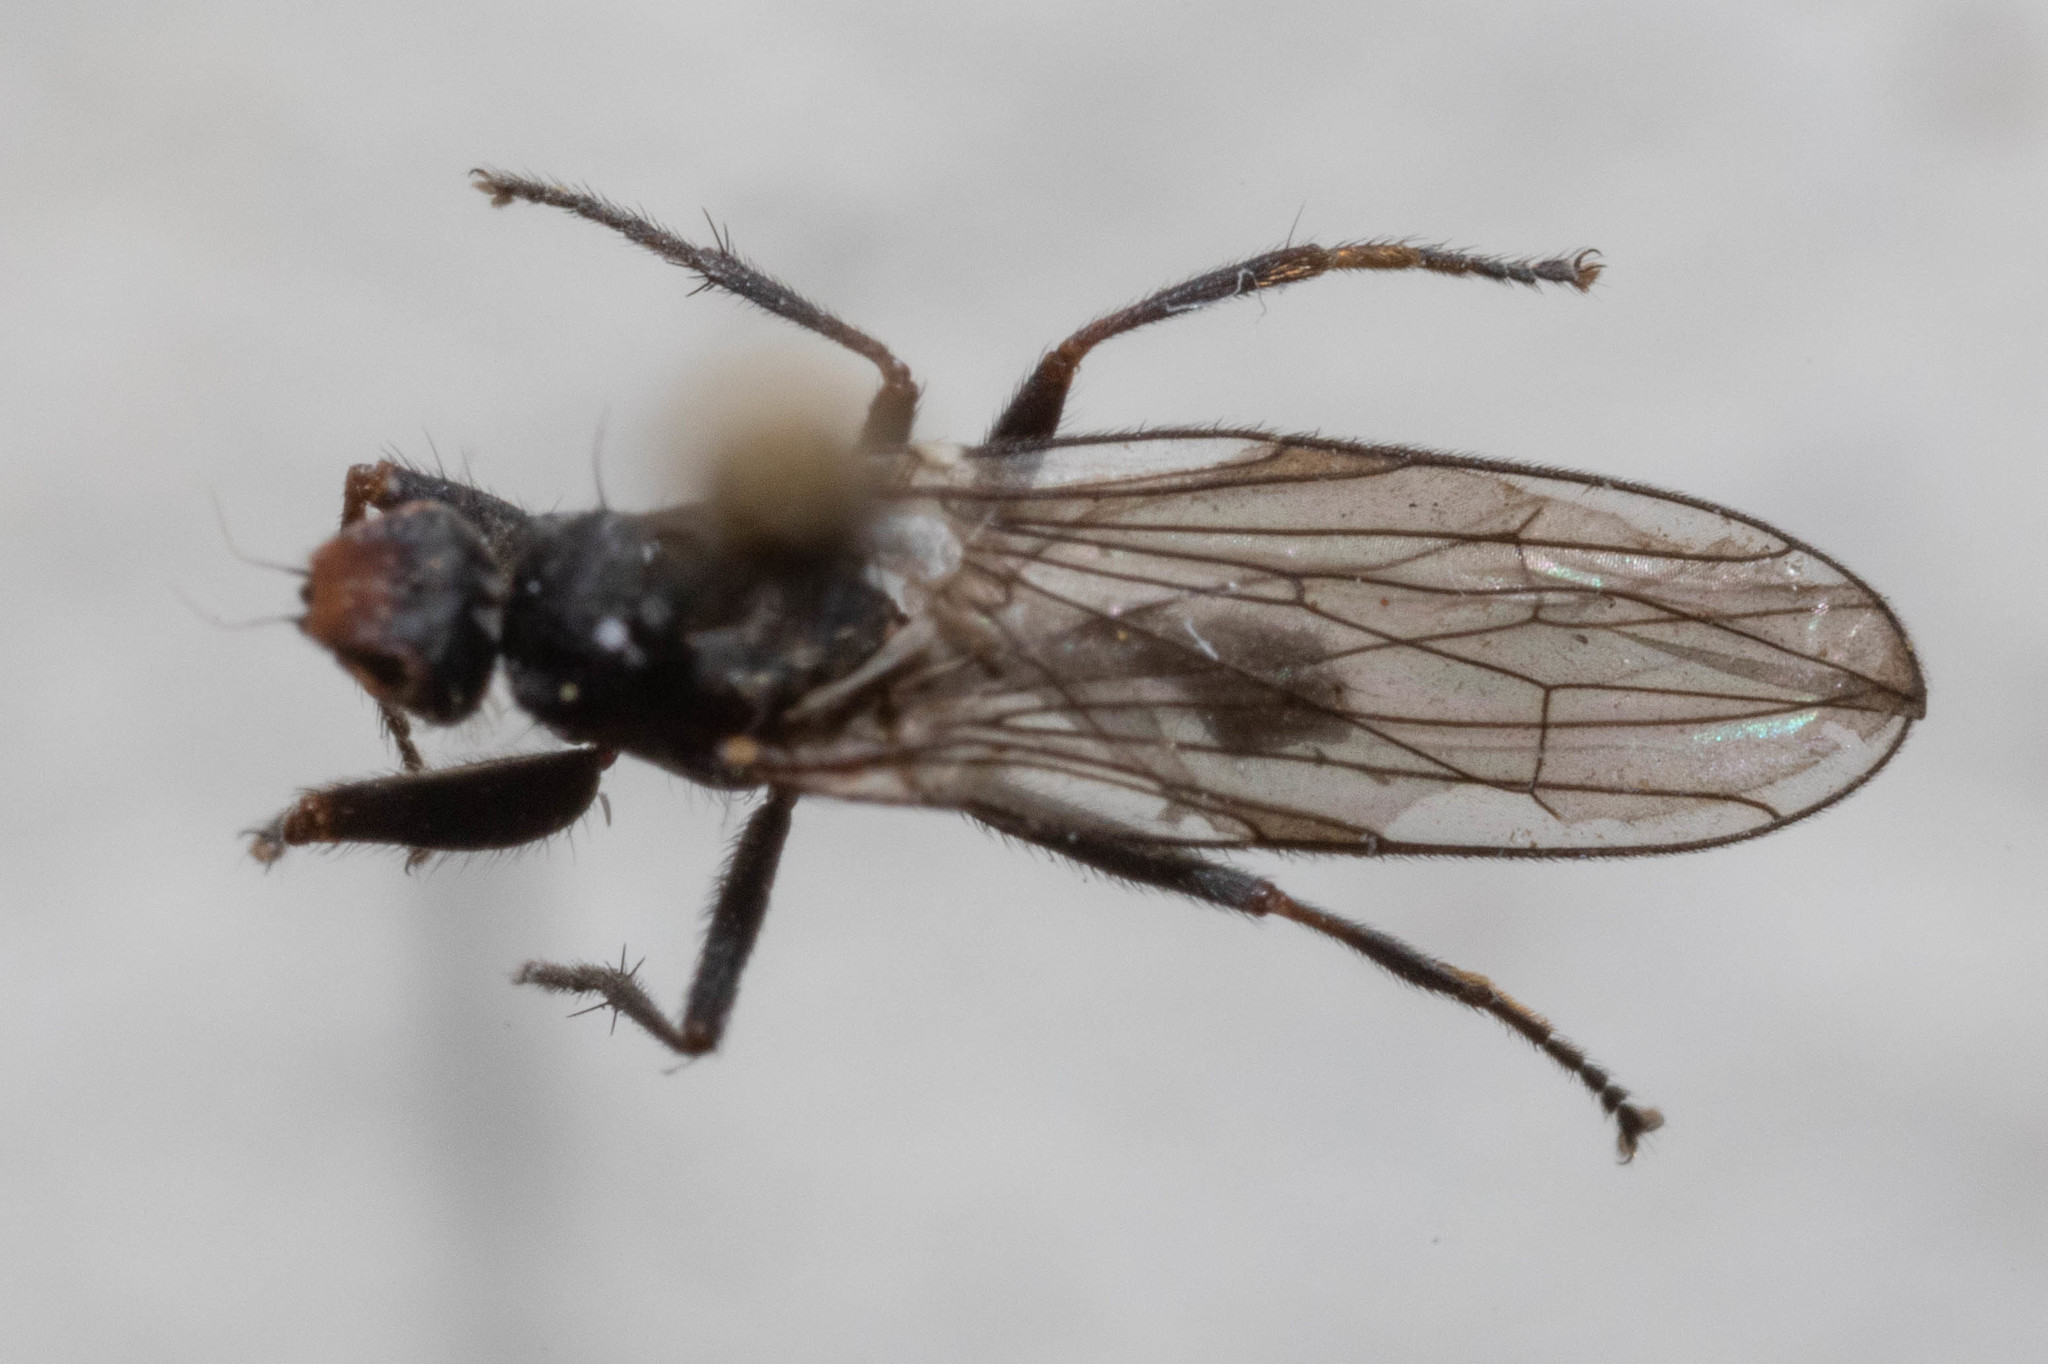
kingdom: Animalia
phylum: Arthropoda
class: Insecta
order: Diptera
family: Heleomyzidae
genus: Orbellia
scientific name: Orbellia petersoni
